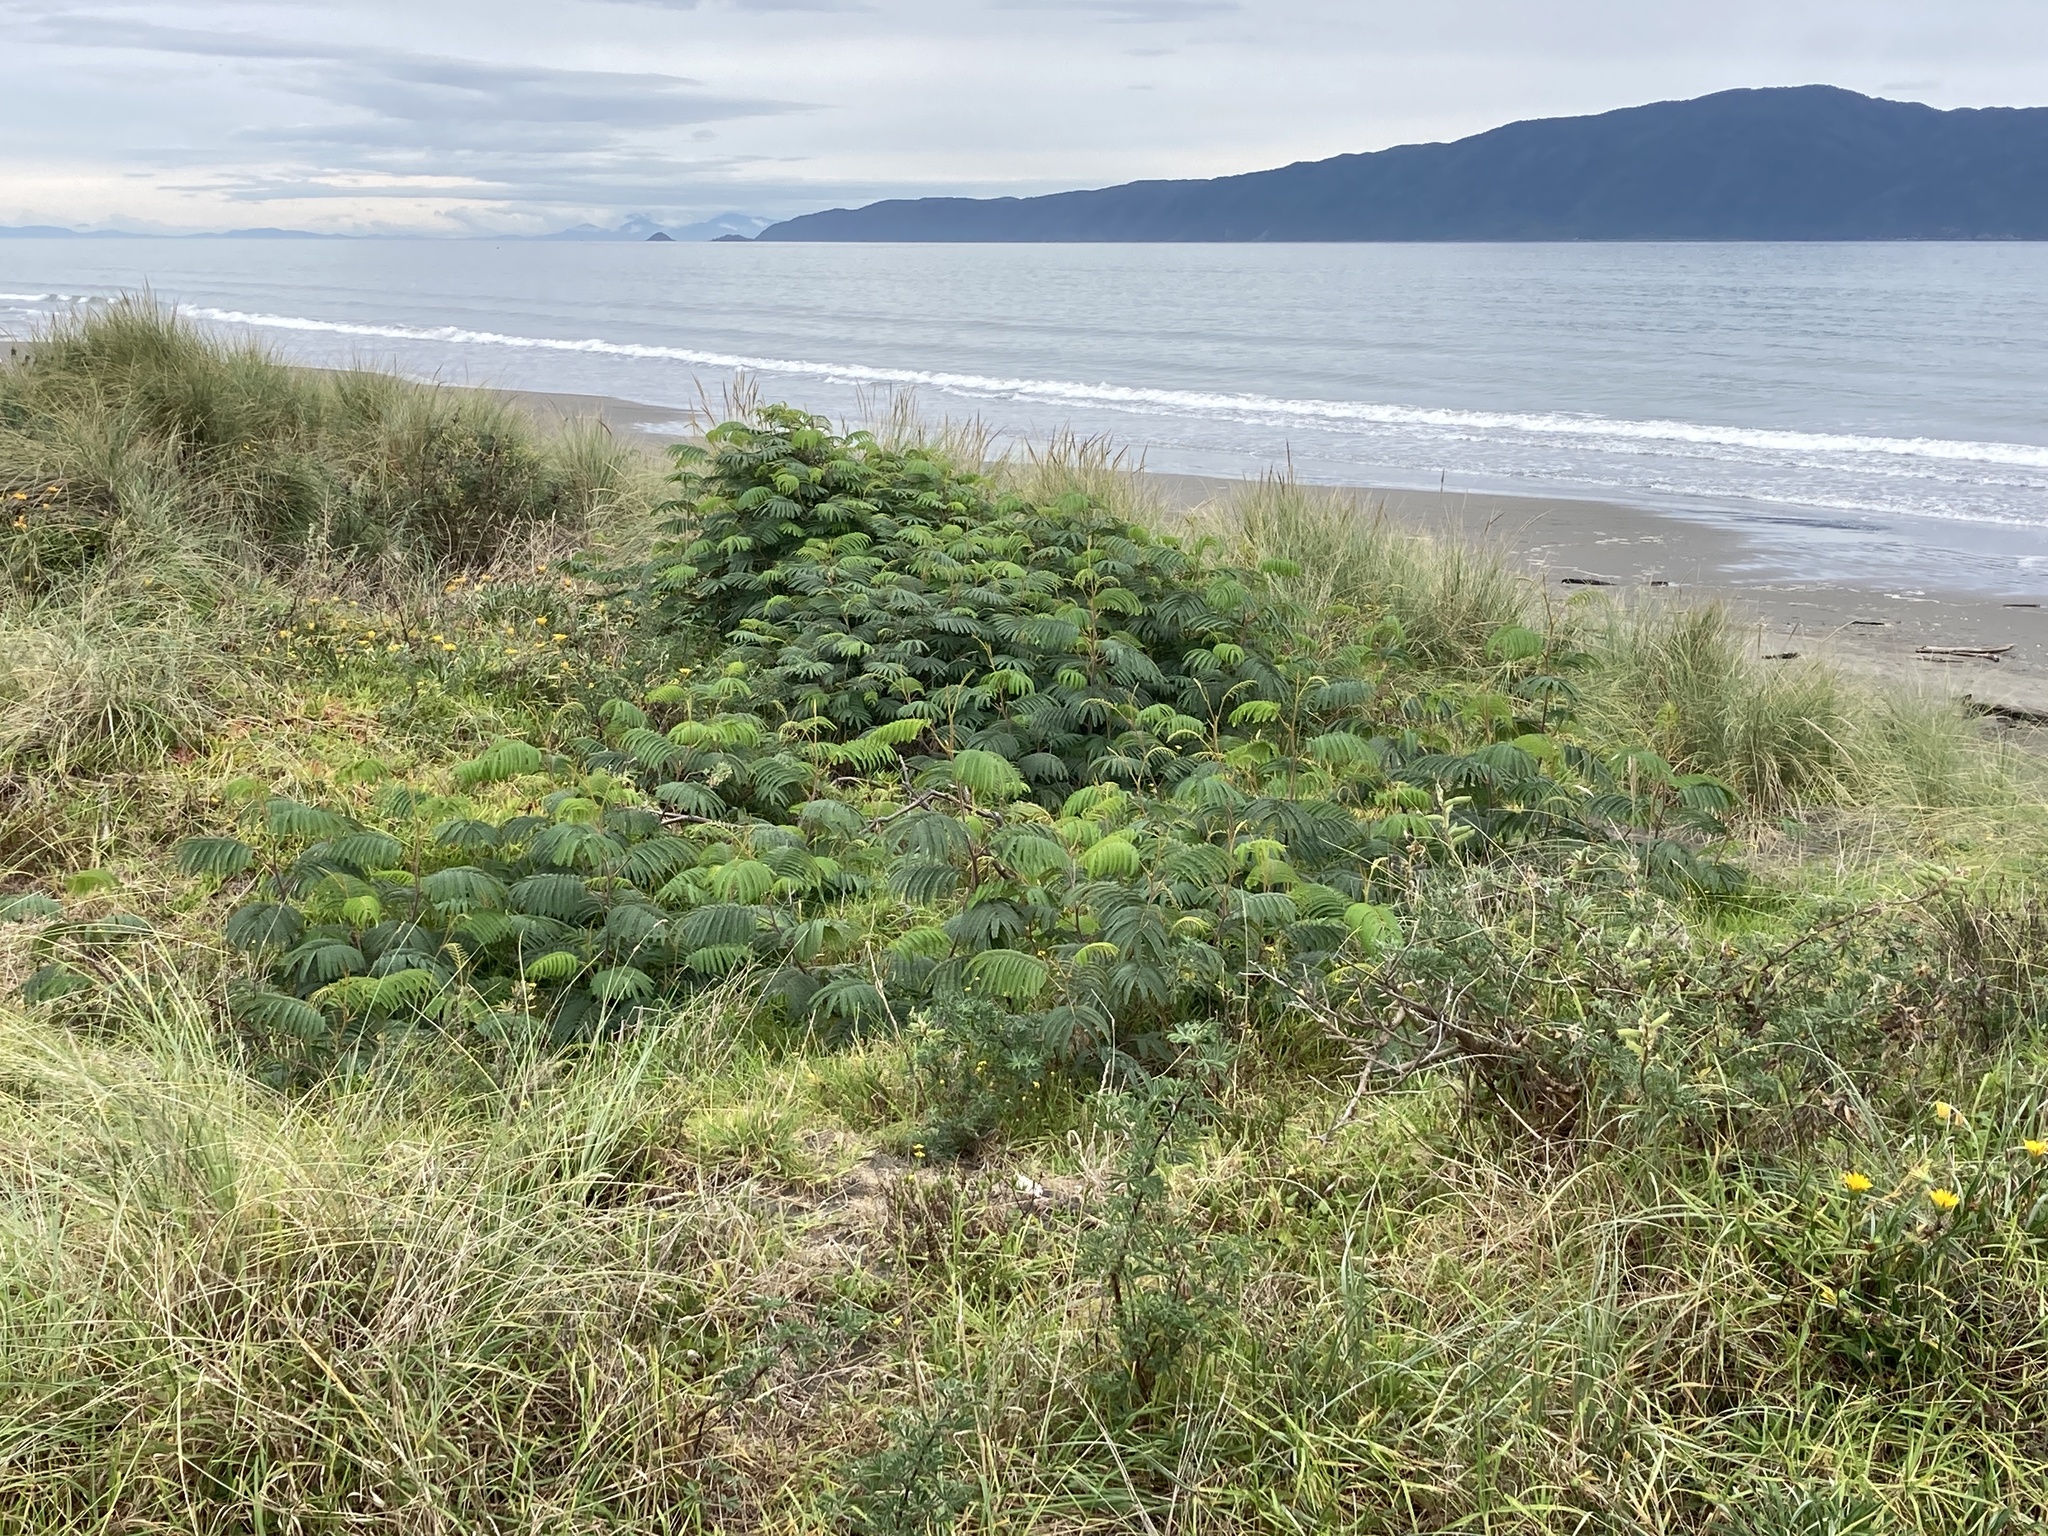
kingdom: Plantae
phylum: Tracheophyta
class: Magnoliopsida
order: Fabales
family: Fabaceae
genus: Paraserianthes
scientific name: Paraserianthes lophantha
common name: Plume albizia
